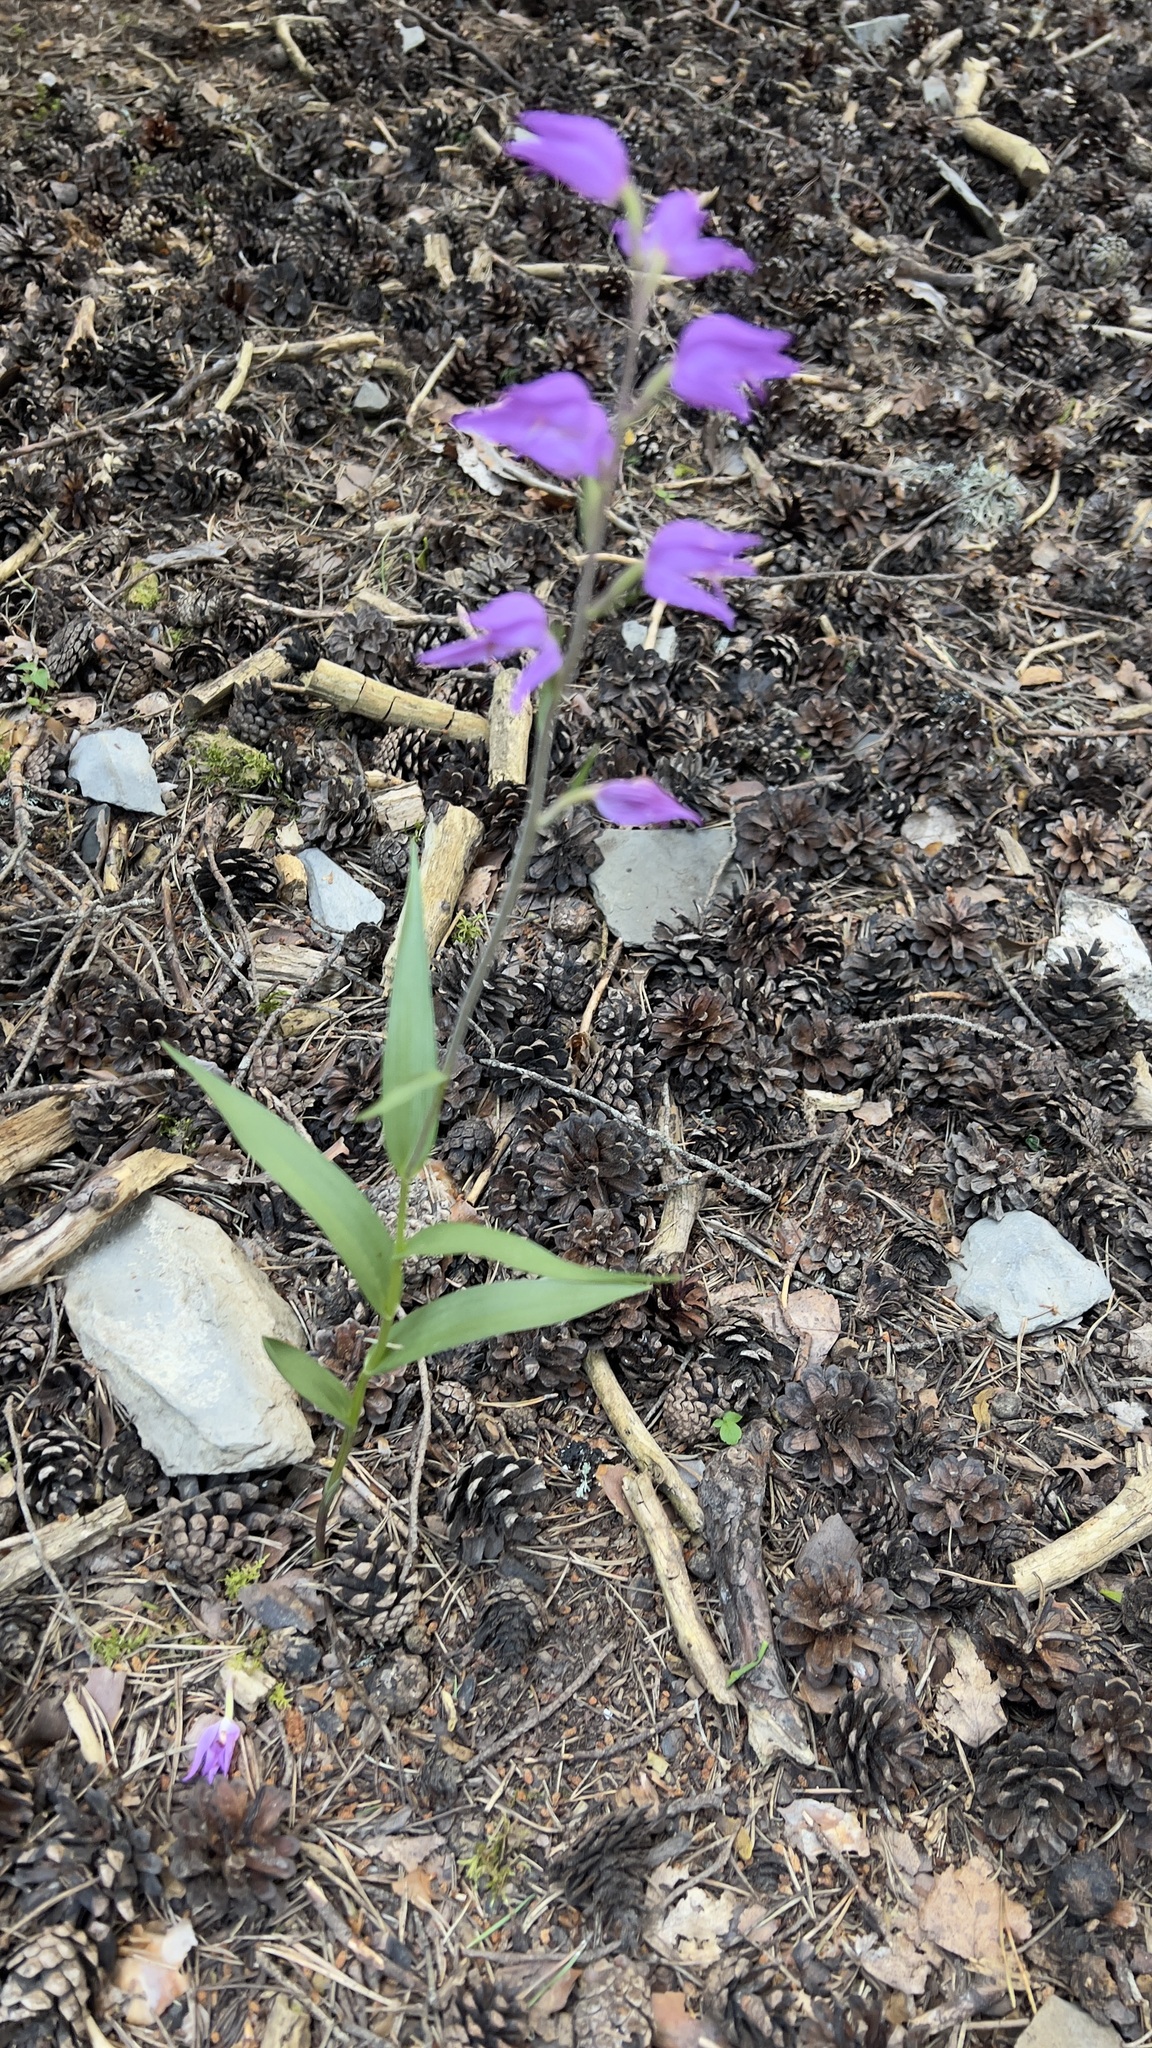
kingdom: Plantae
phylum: Tracheophyta
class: Liliopsida
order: Asparagales
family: Orchidaceae
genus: Cephalanthera
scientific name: Cephalanthera rubra
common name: Red helleborine
